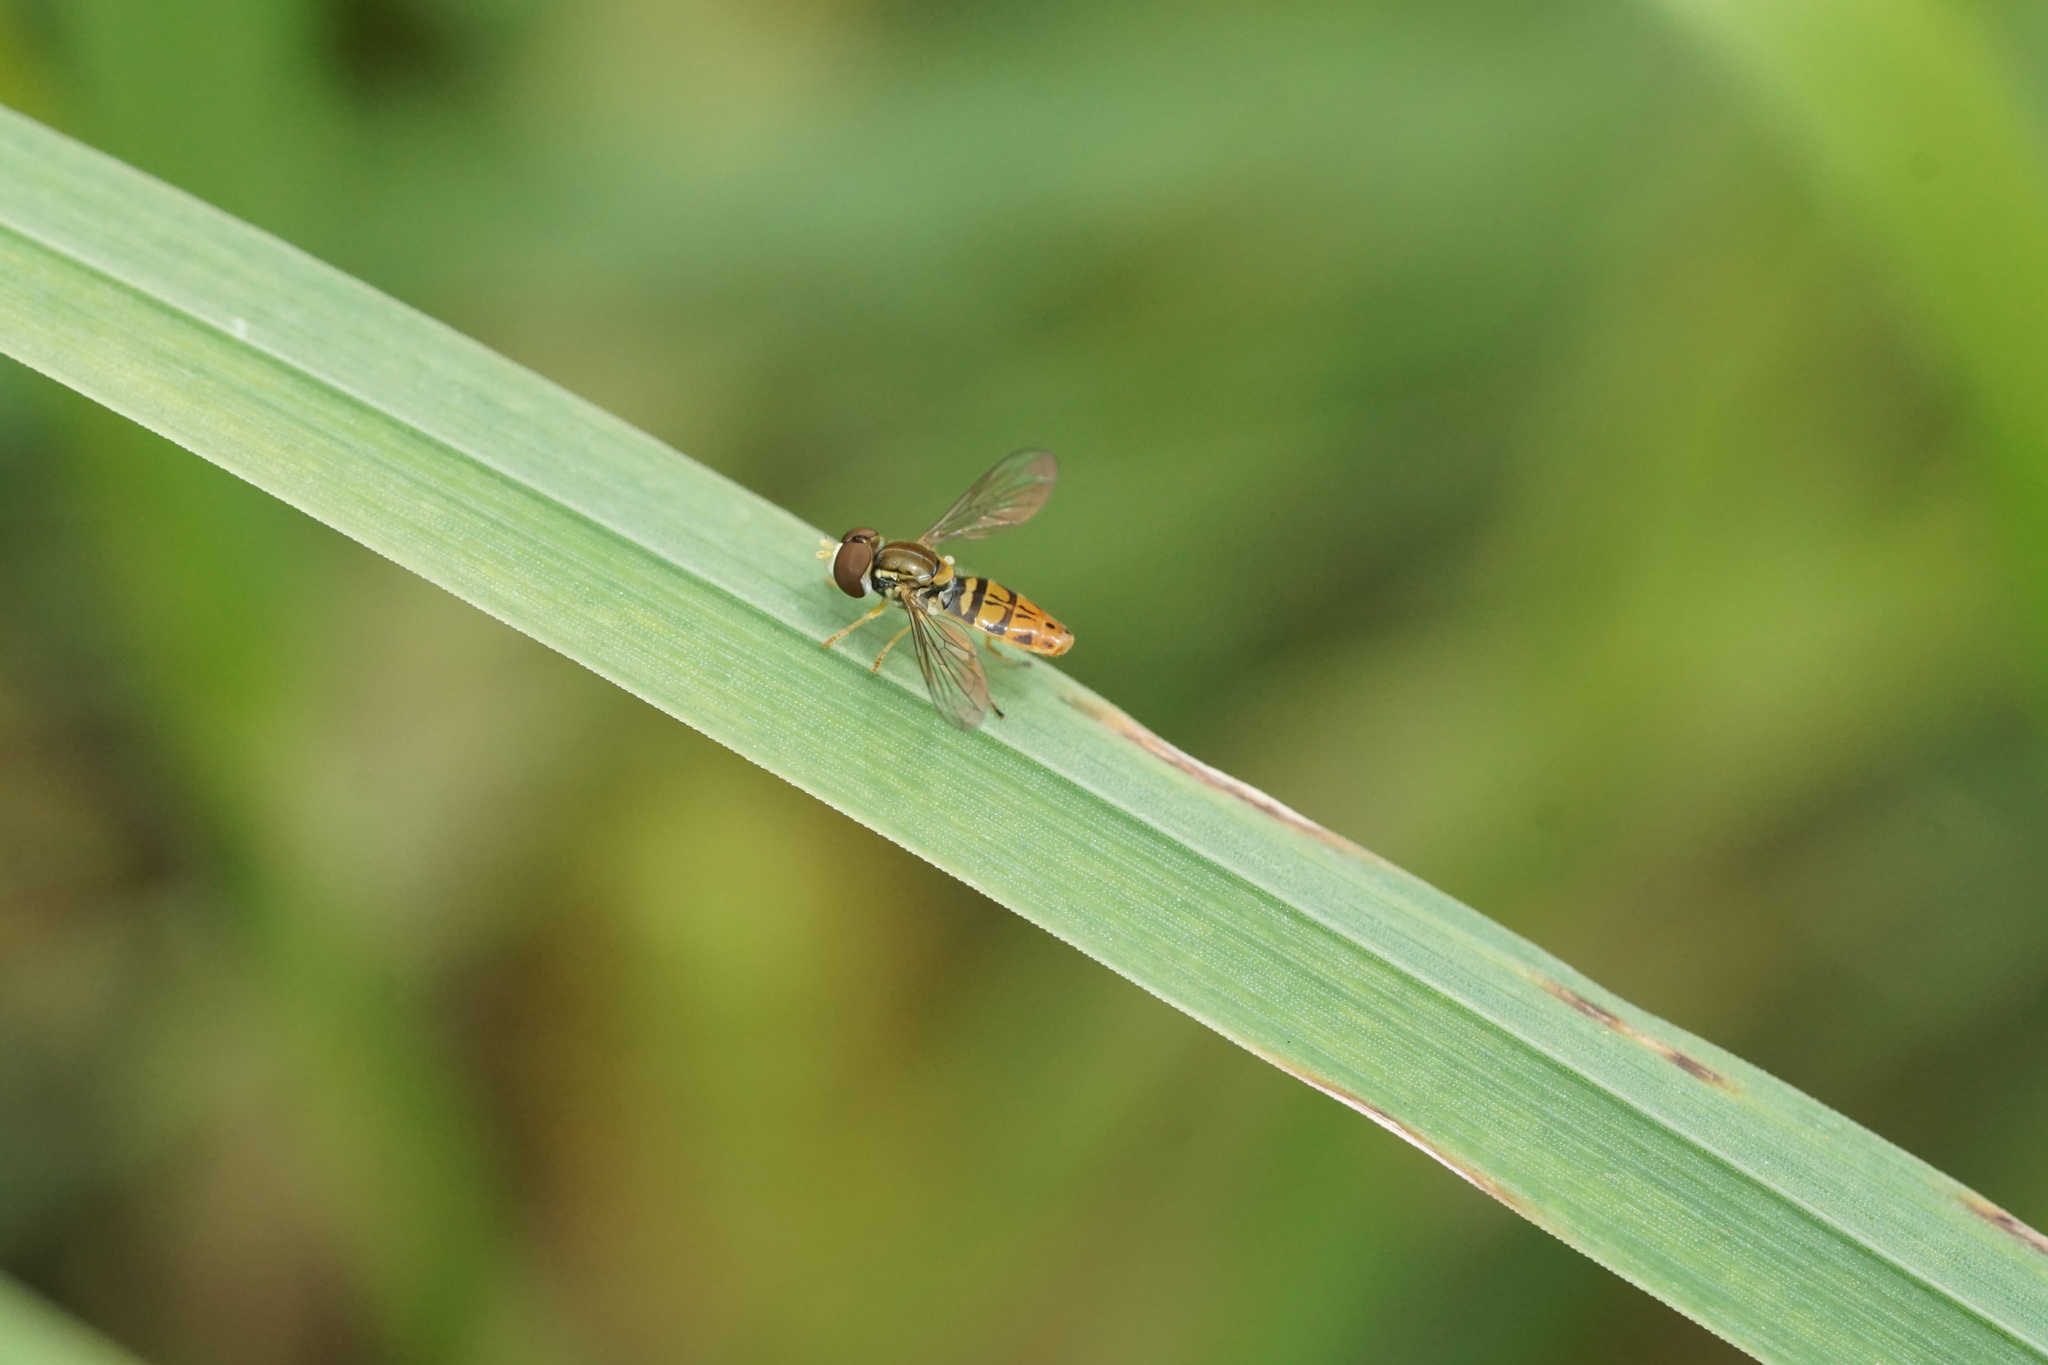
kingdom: Animalia
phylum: Arthropoda
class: Insecta
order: Diptera
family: Syrphidae
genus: Toxomerus
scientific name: Toxomerus marginatus
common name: Syrphid fly
